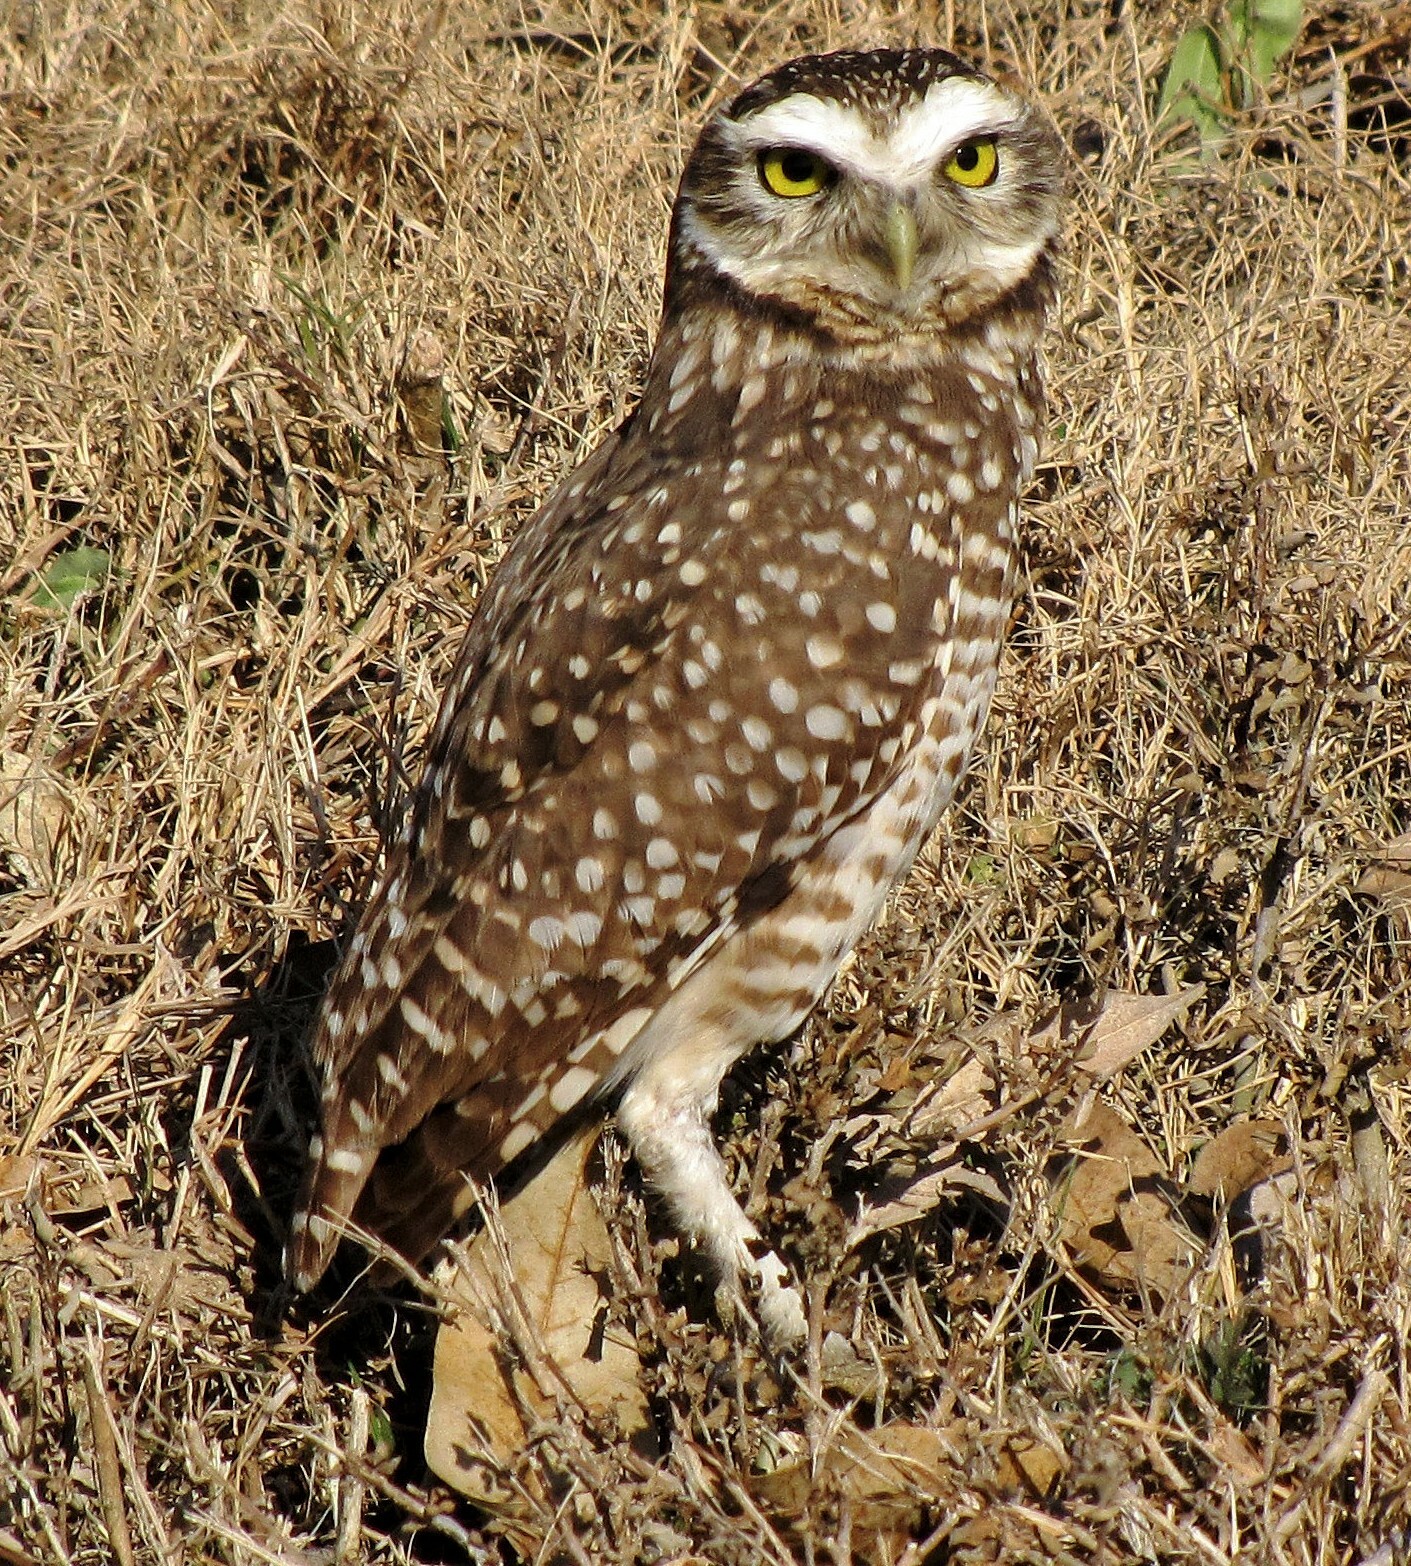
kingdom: Animalia
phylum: Chordata
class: Aves
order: Strigiformes
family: Strigidae
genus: Athene
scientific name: Athene cunicularia
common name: Burrowing owl
